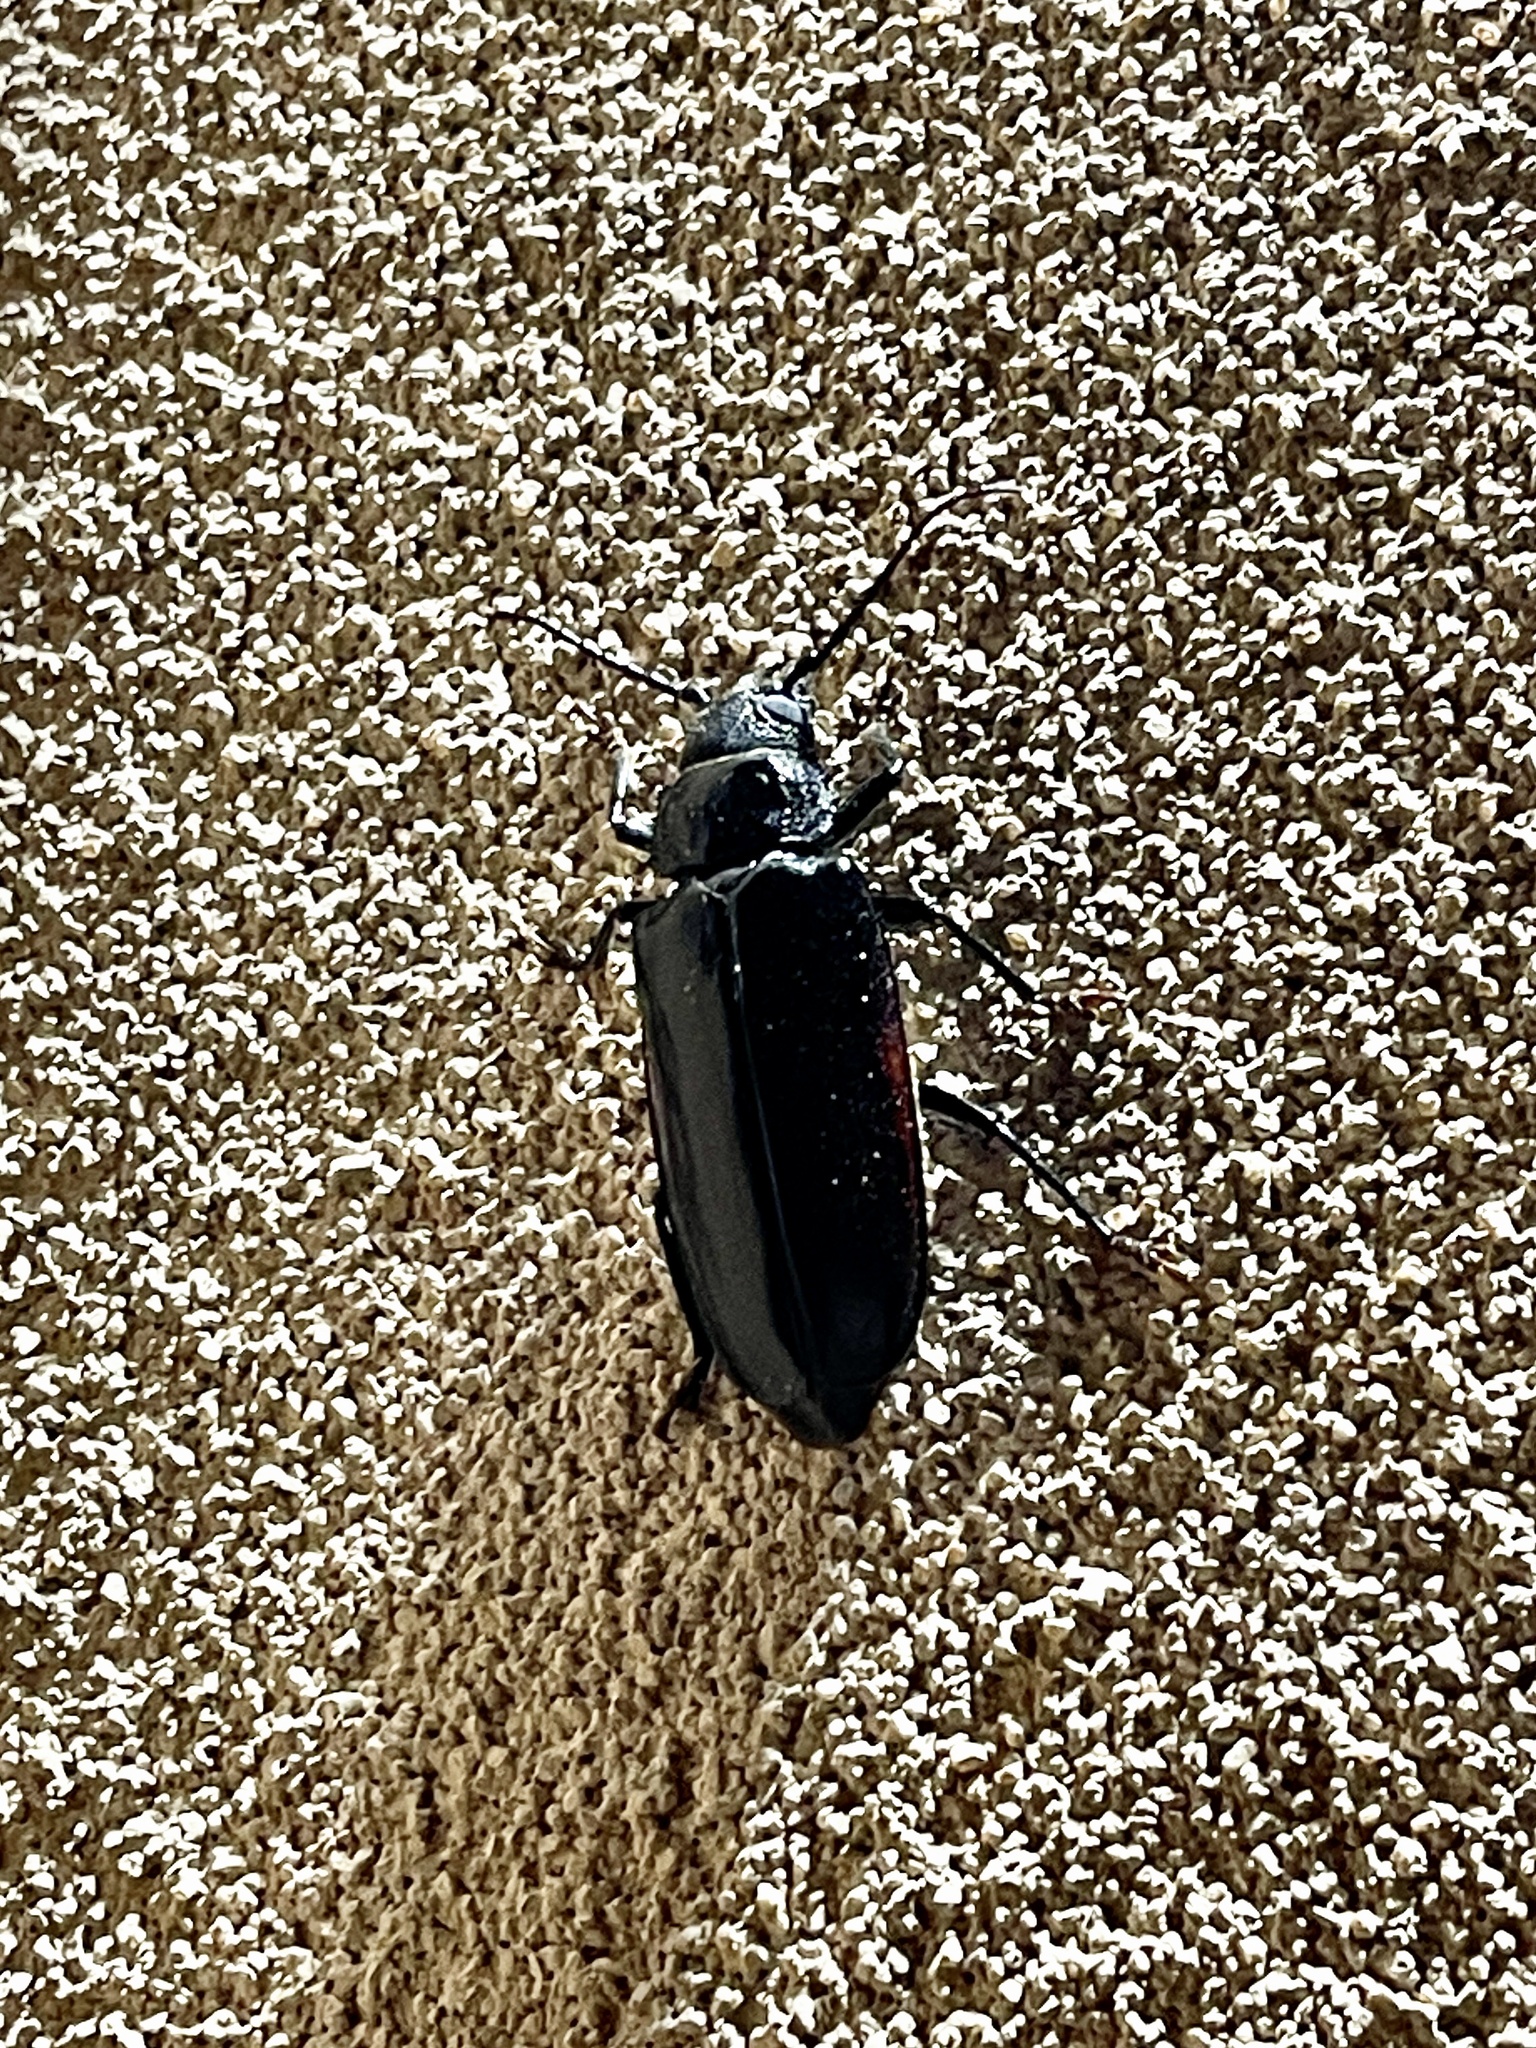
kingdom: Animalia
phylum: Arthropoda
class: Insecta
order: Coleoptera
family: Cerambycidae
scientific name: Cerambycidae
